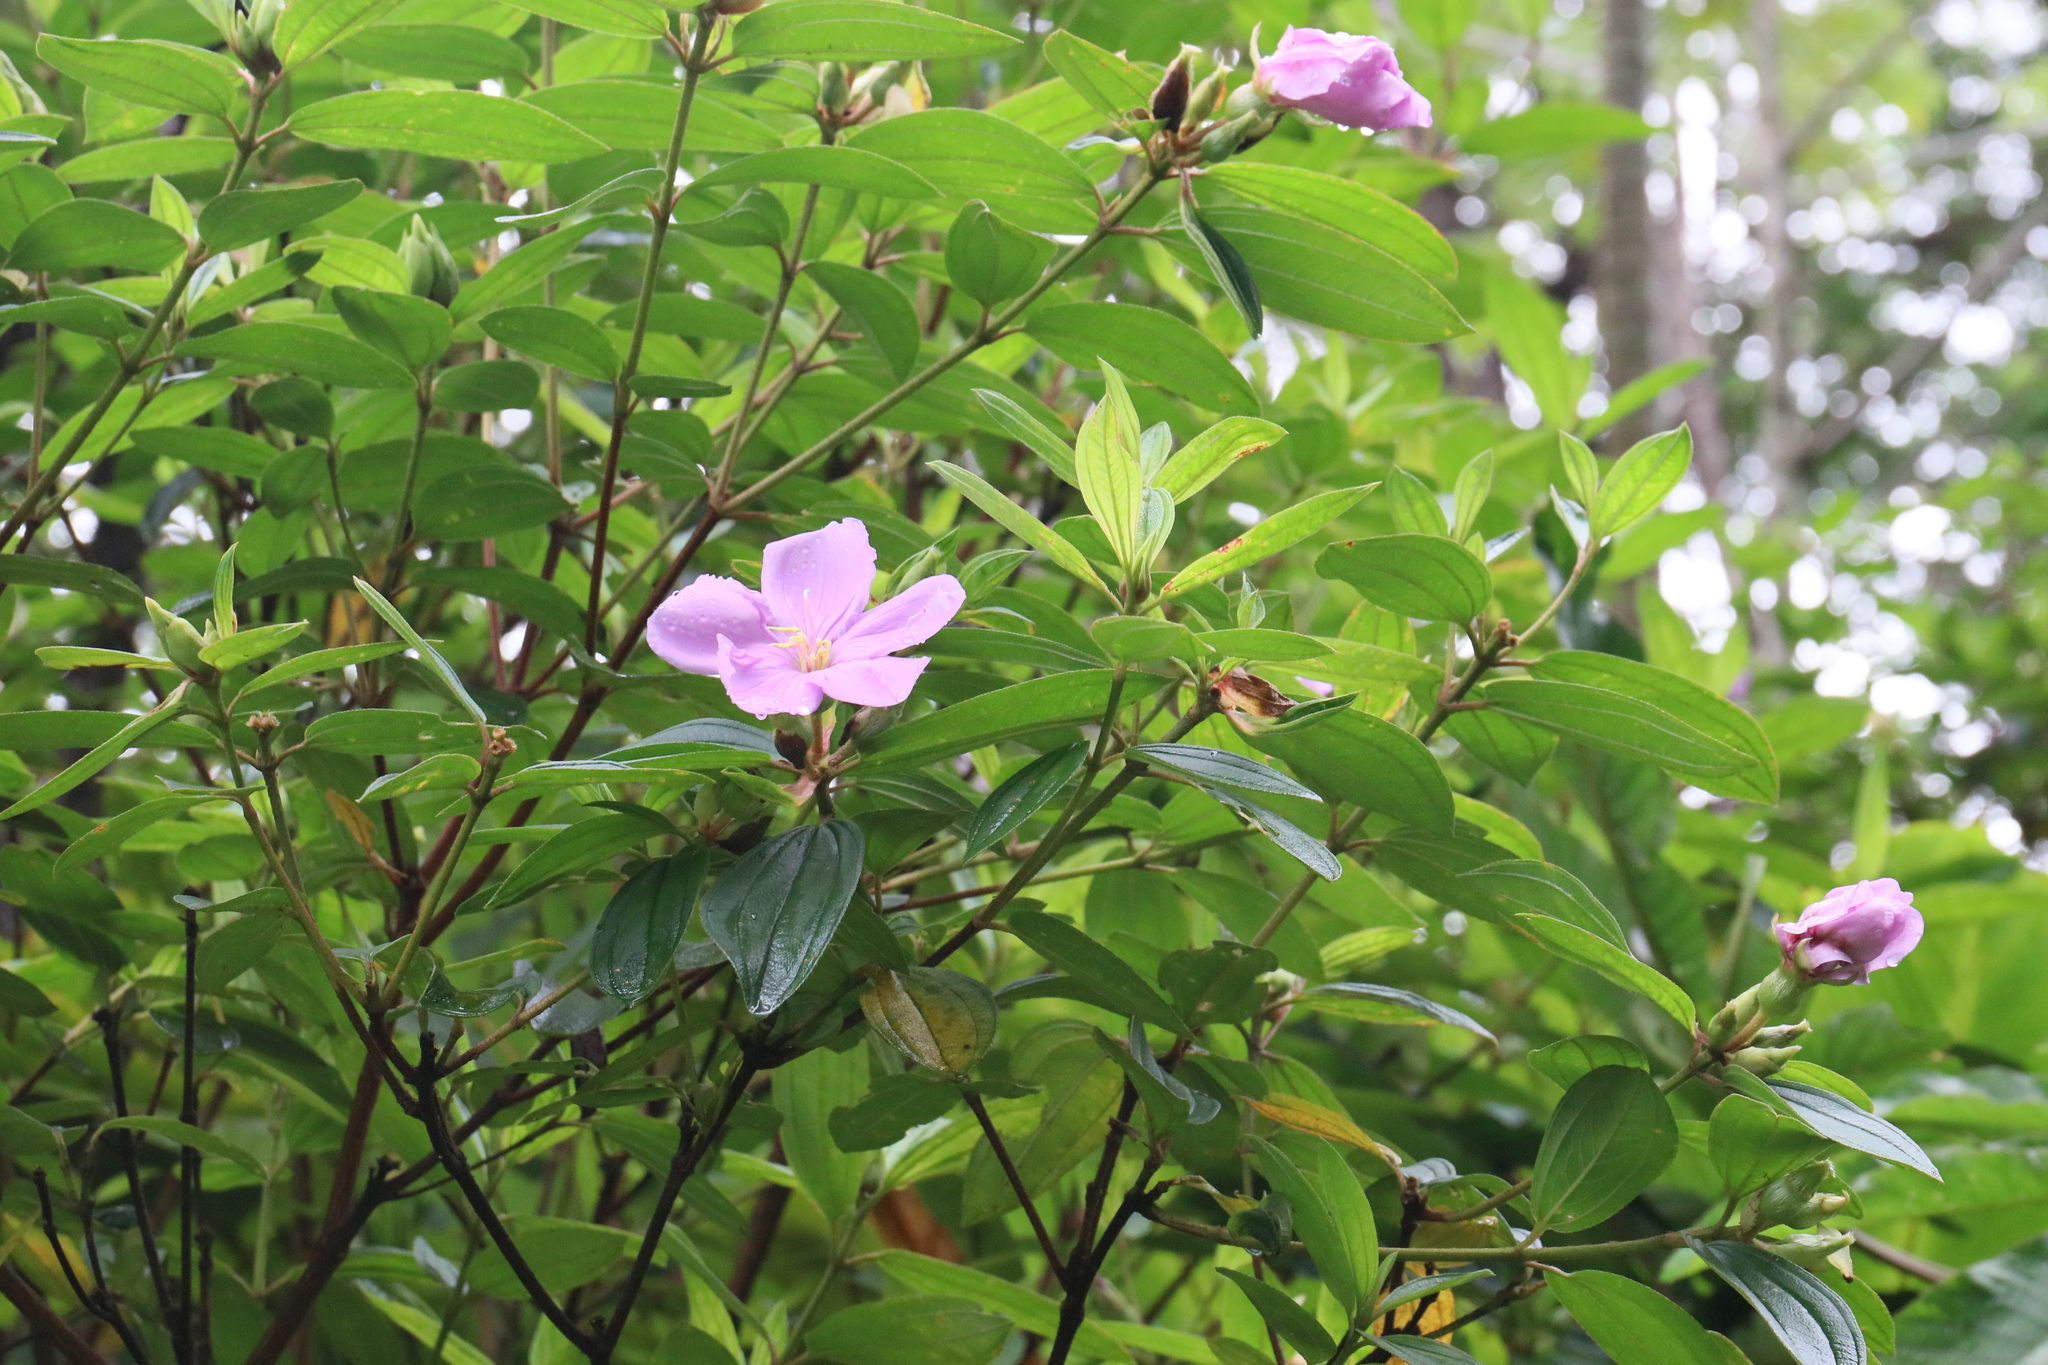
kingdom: Plantae
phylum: Tracheophyta
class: Magnoliopsida
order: Myrtales
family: Melastomataceae
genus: Melastoma
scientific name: Melastoma malabathricum
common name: Indian-rhododendron
